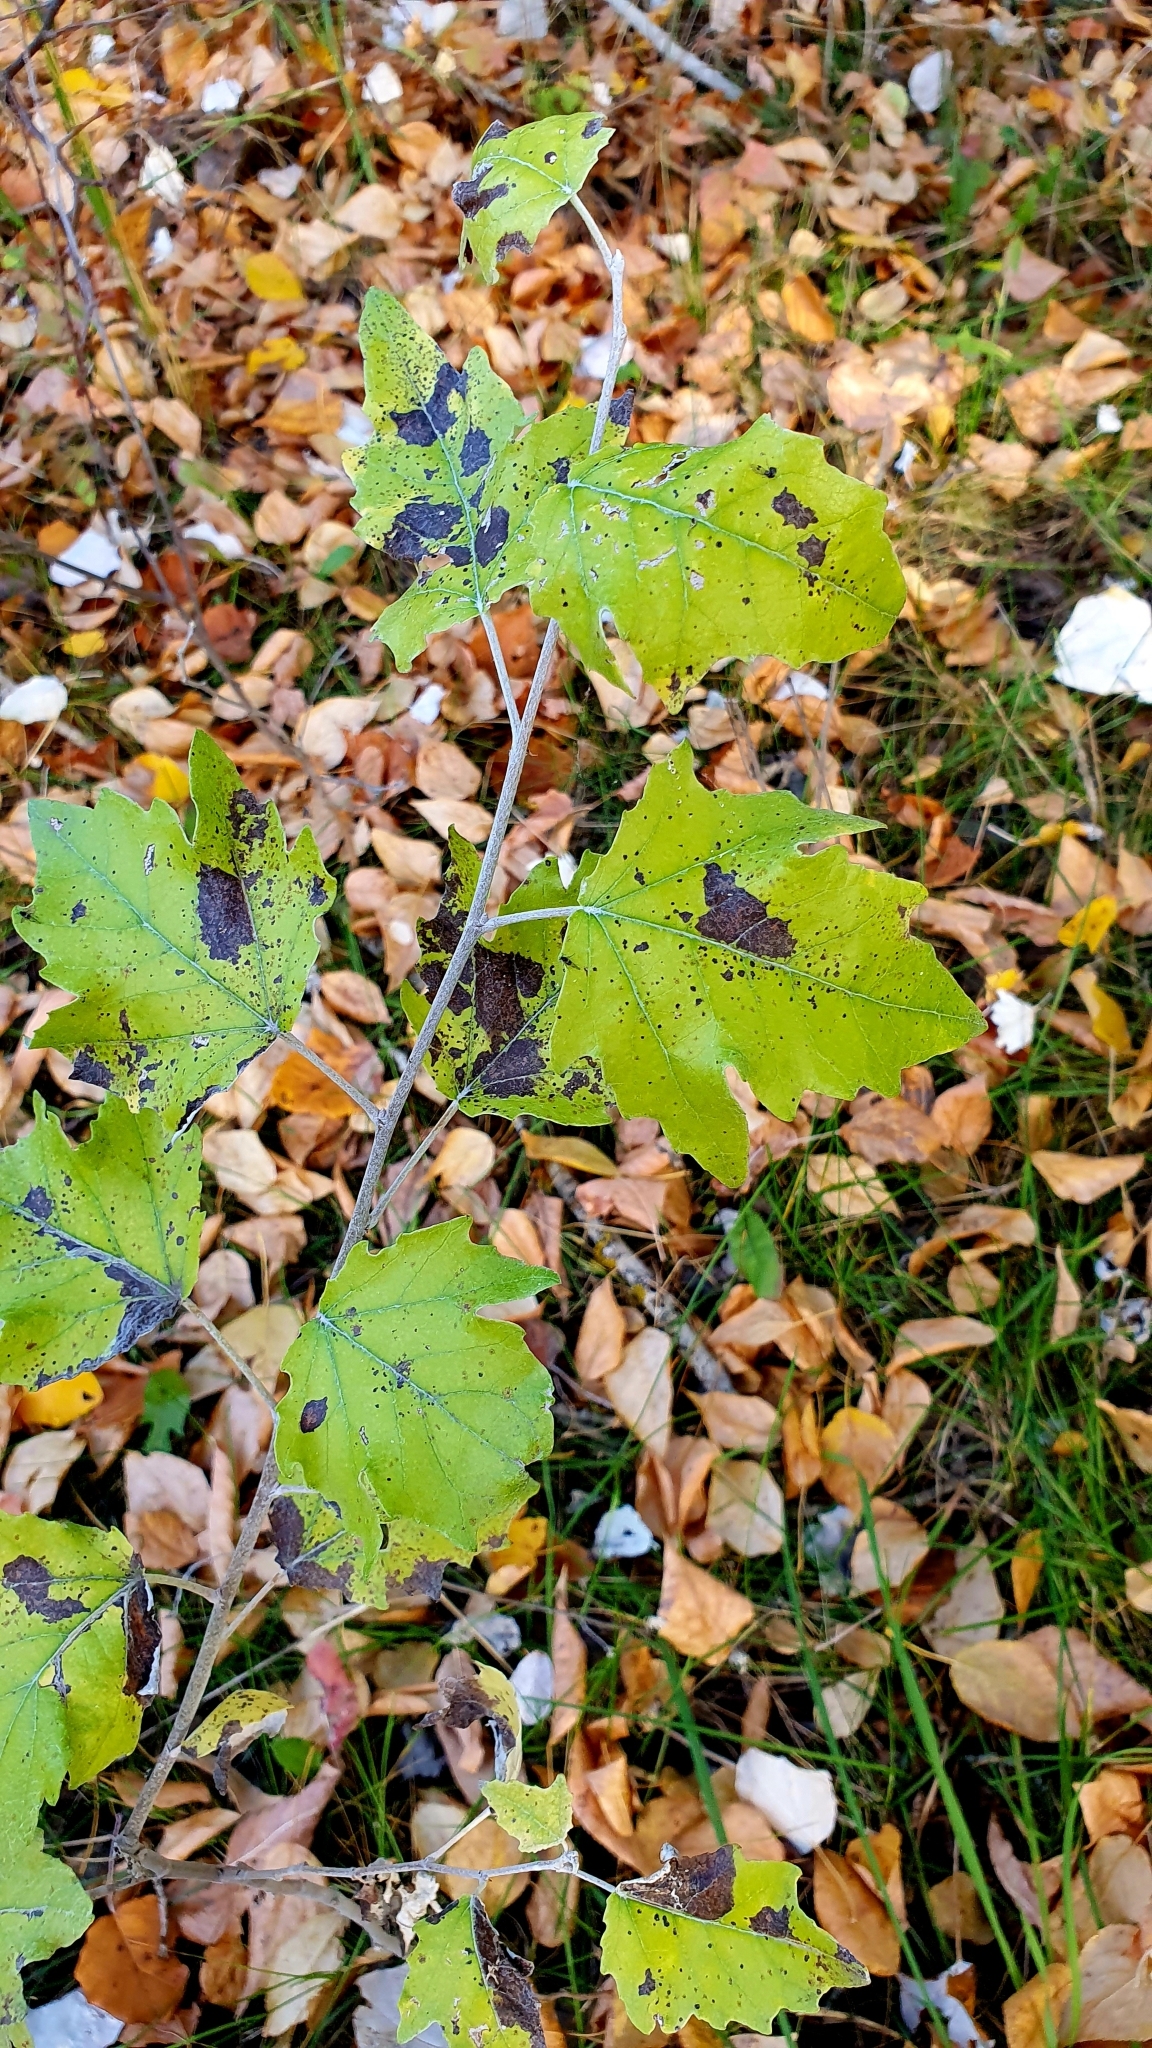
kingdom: Plantae
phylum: Tracheophyta
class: Magnoliopsida
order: Malpighiales
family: Salicaceae
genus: Populus
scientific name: Populus alba
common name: White poplar
